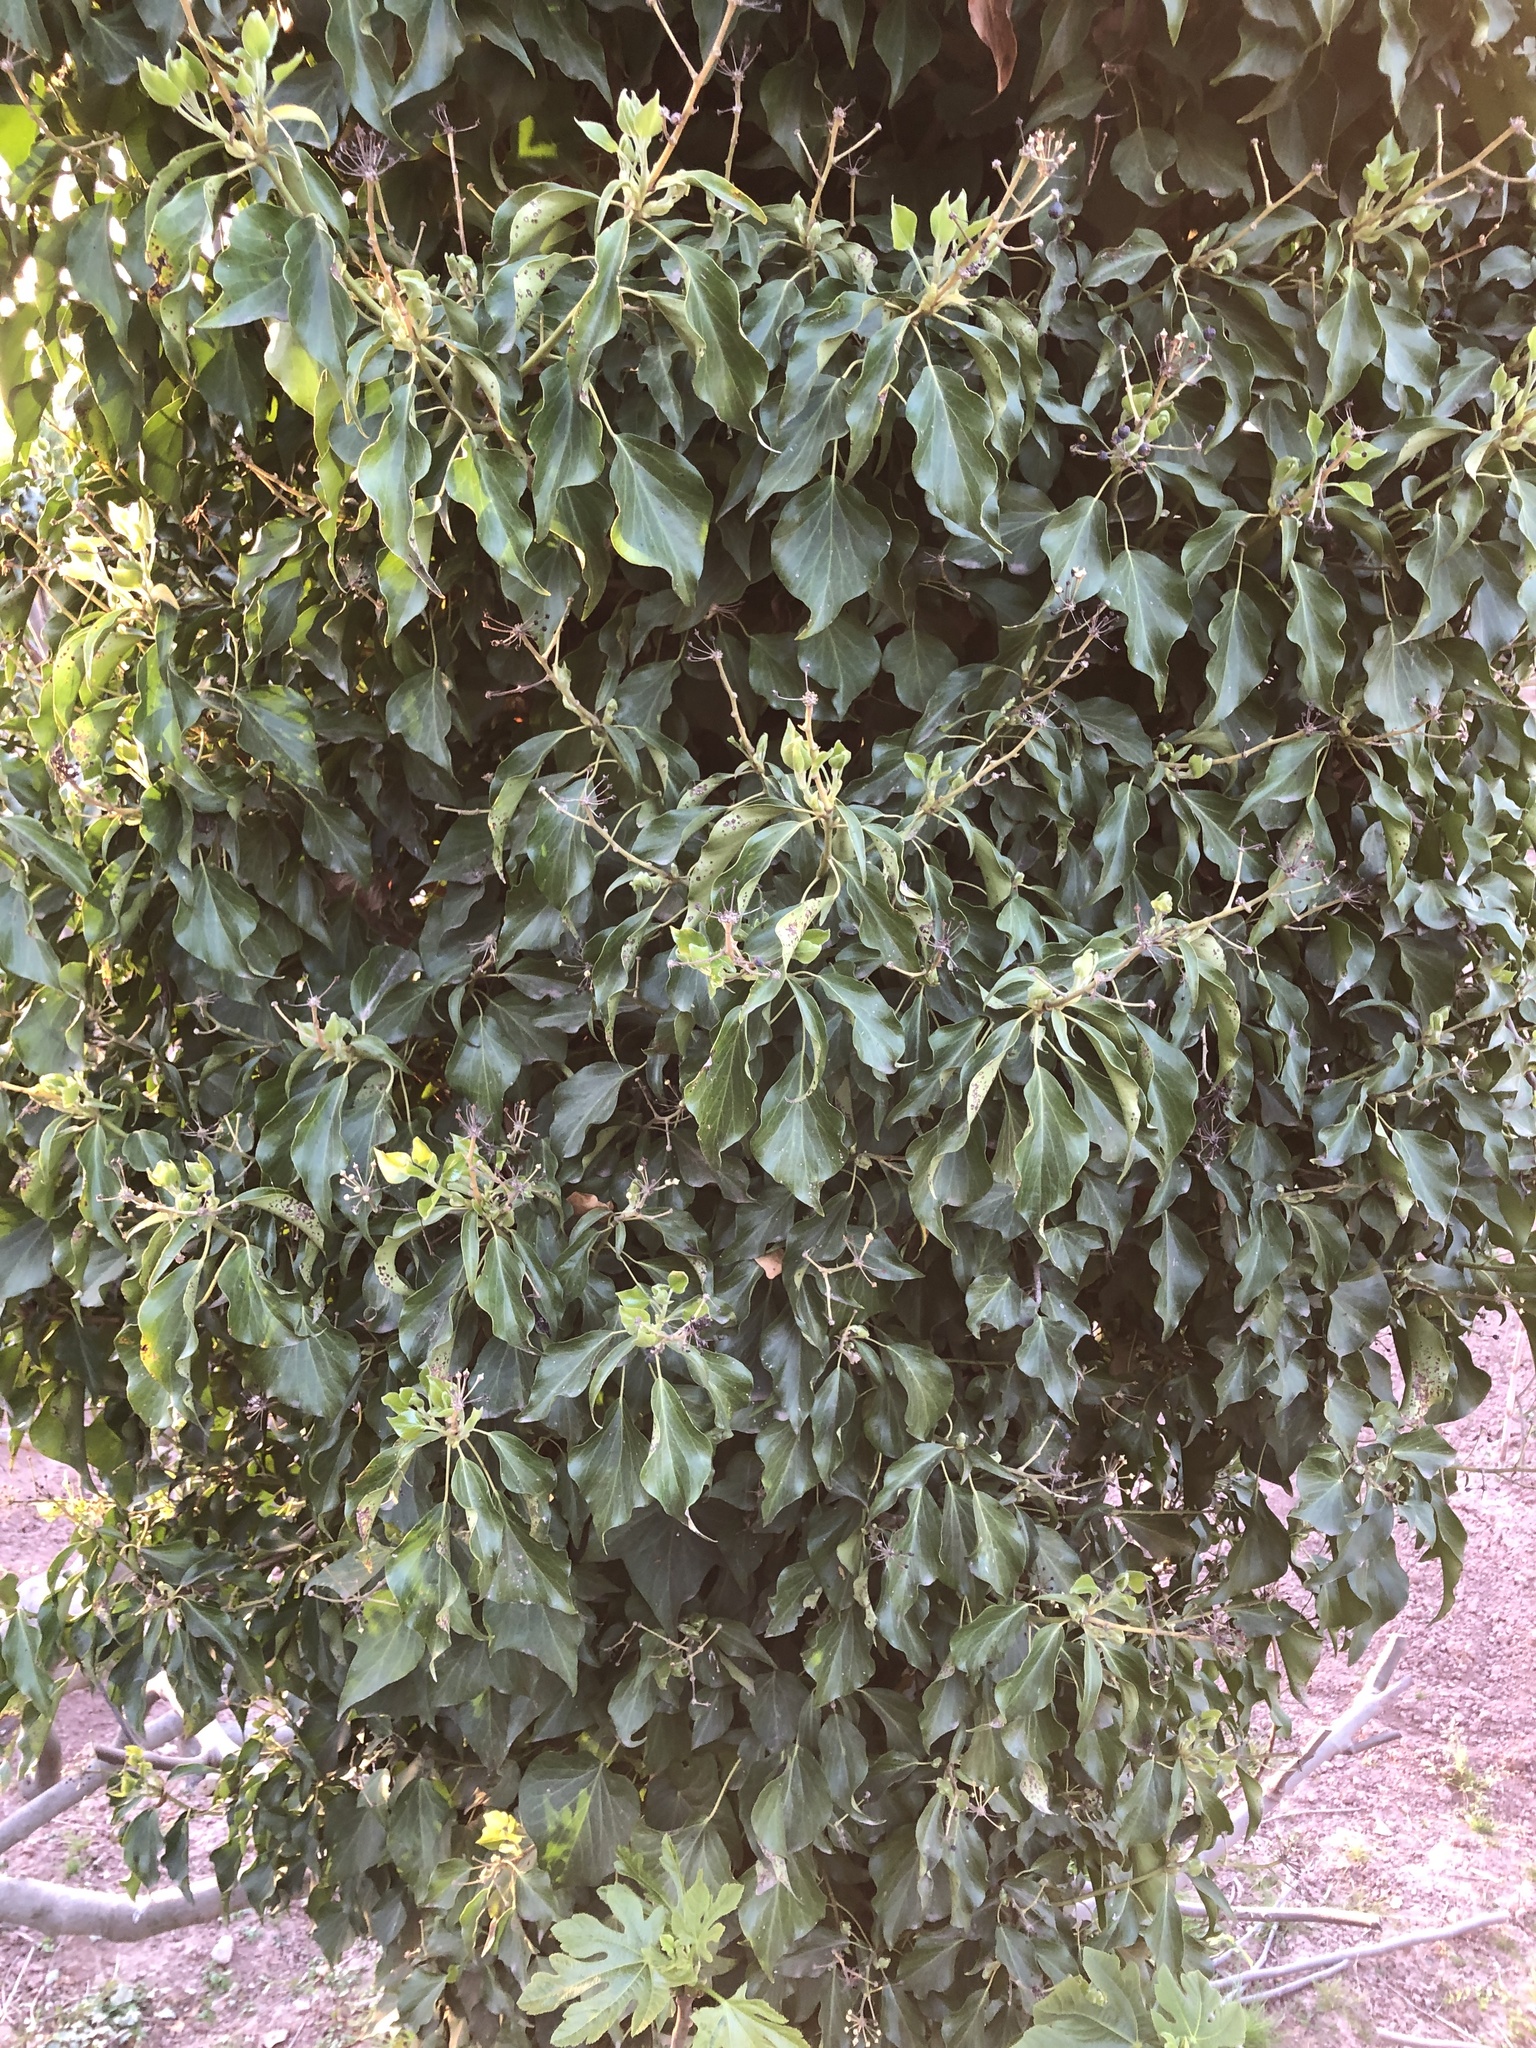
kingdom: Plantae
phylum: Tracheophyta
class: Magnoliopsida
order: Apiales
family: Araliaceae
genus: Hedera
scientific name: Hedera helix
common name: Ivy
